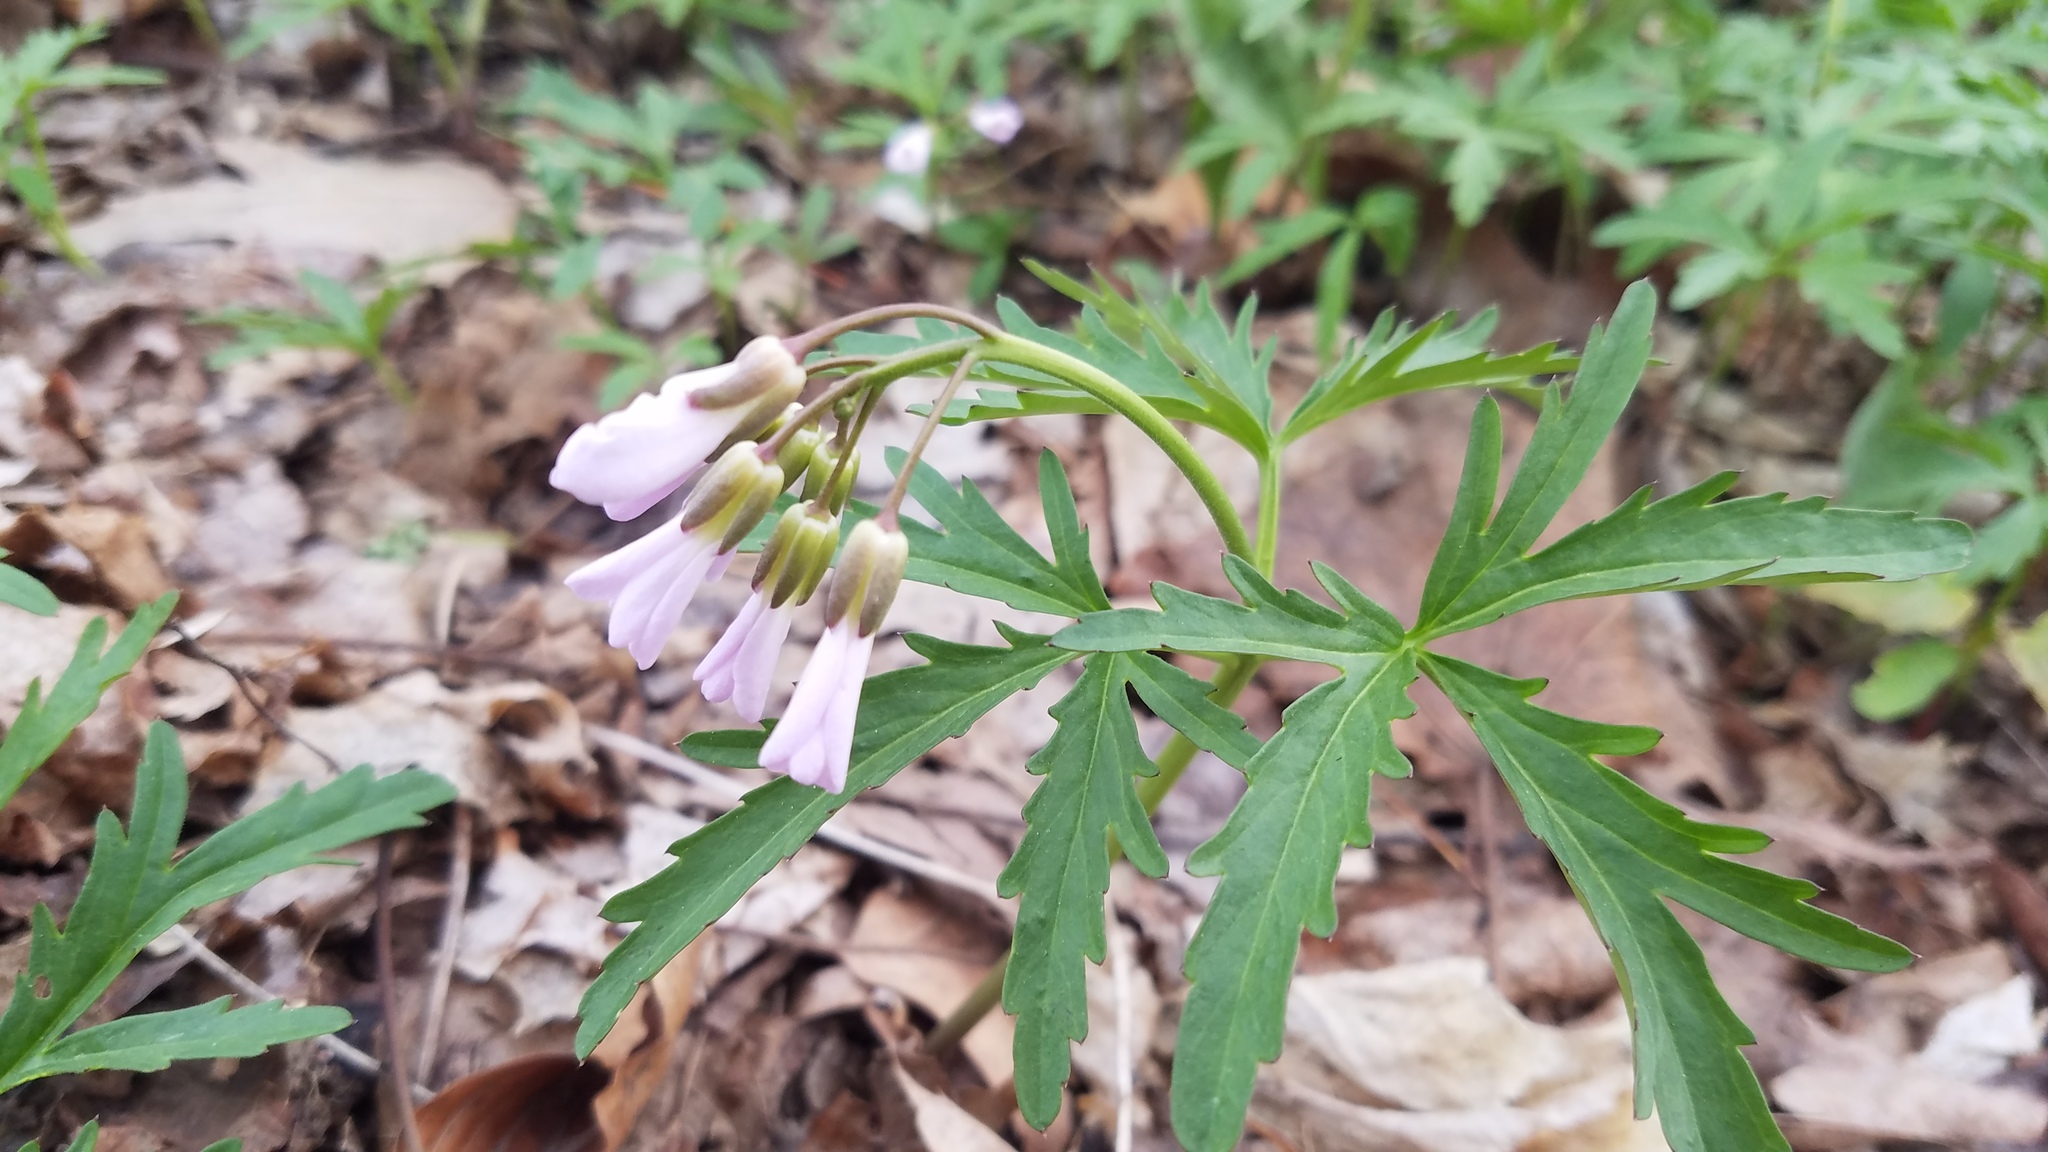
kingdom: Plantae
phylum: Tracheophyta
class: Magnoliopsida
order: Brassicales
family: Brassicaceae
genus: Cardamine
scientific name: Cardamine concatenata
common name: Cut-leaf toothcup
